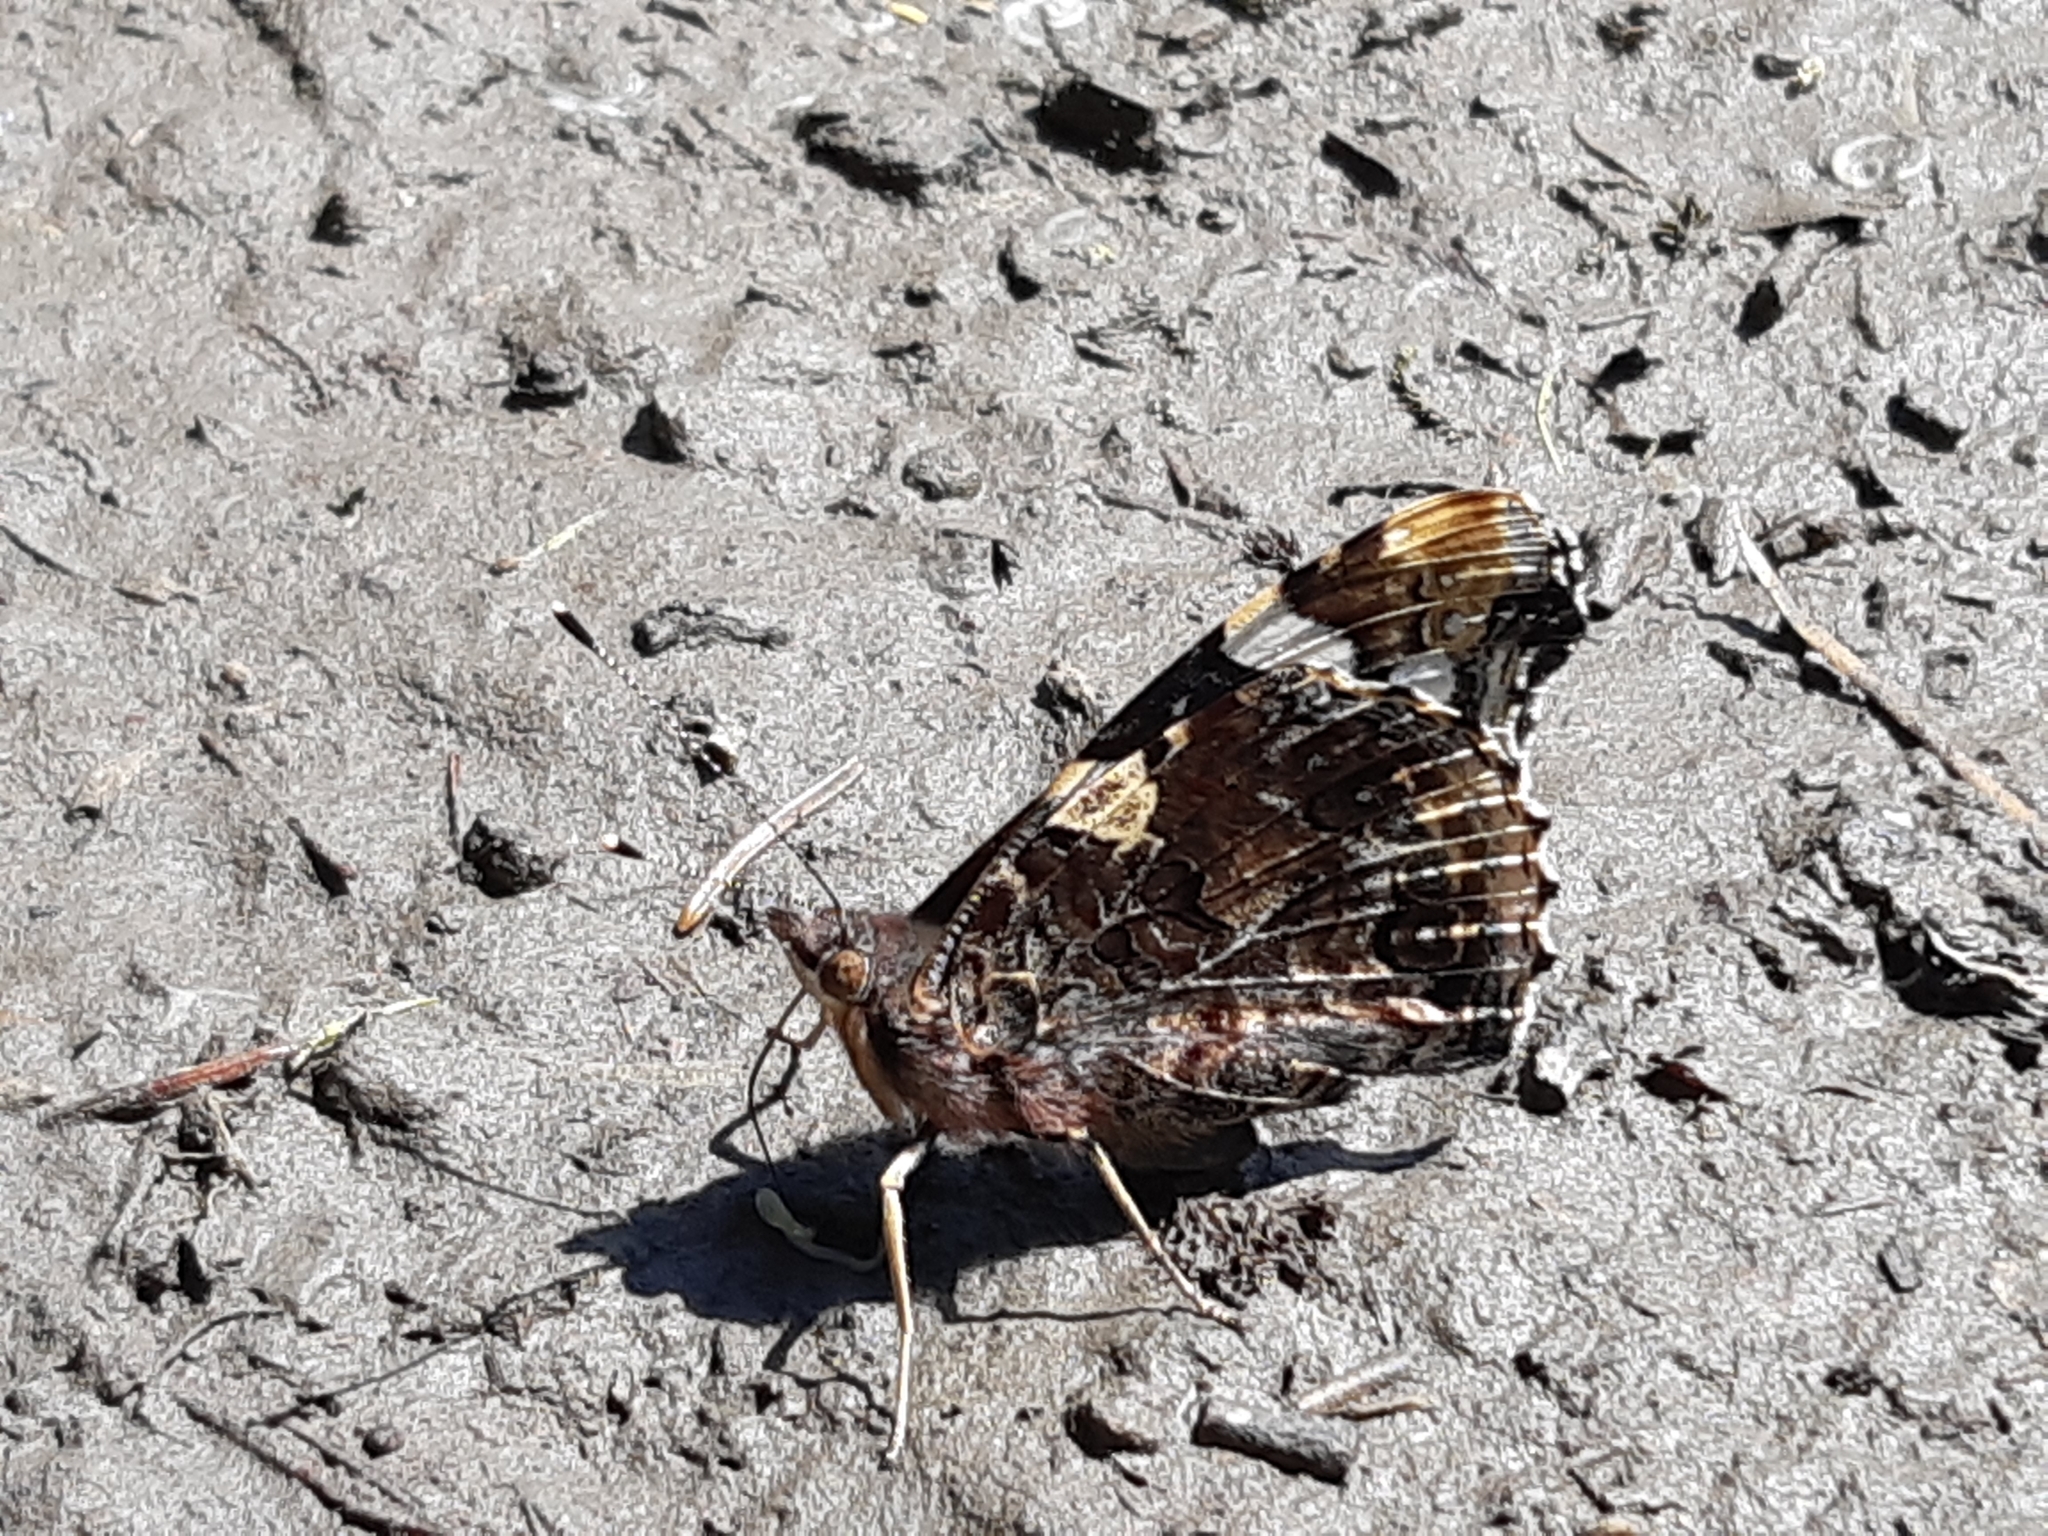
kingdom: Animalia
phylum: Arthropoda
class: Insecta
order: Lepidoptera
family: Nymphalidae
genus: Vanessa
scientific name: Vanessa atalanta
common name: Red admiral
